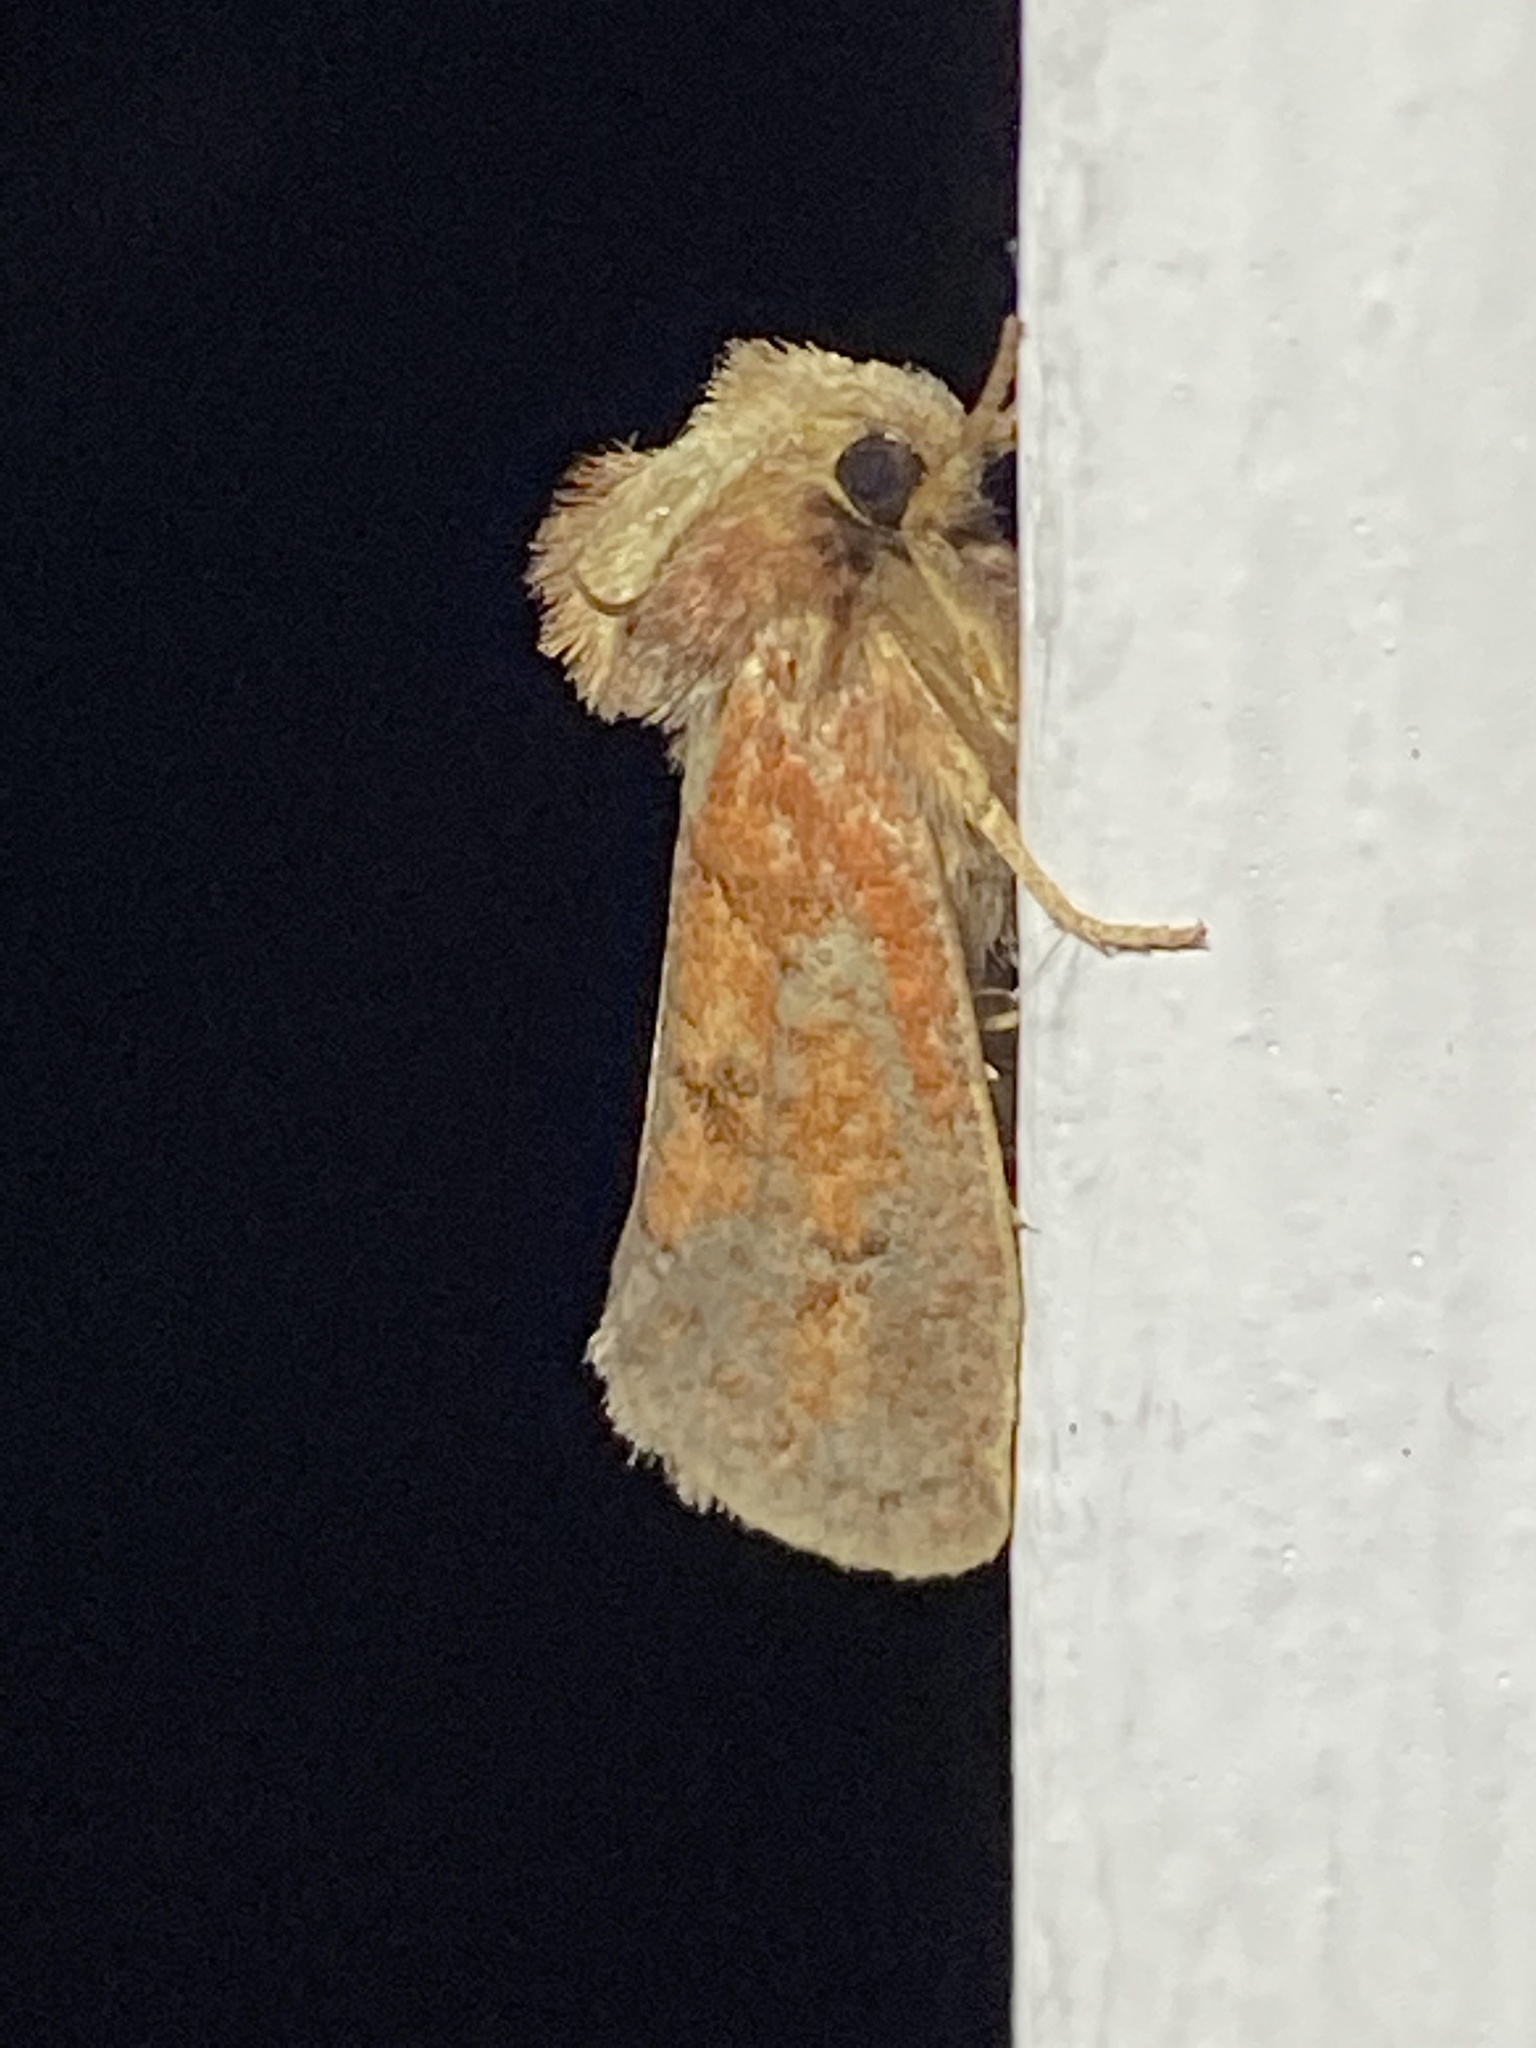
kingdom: Animalia
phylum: Arthropoda
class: Insecta
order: Lepidoptera
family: Tineidae
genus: Acrolophus
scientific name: Acrolophus plumifrontella
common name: Eastern grass tubeworm moth
